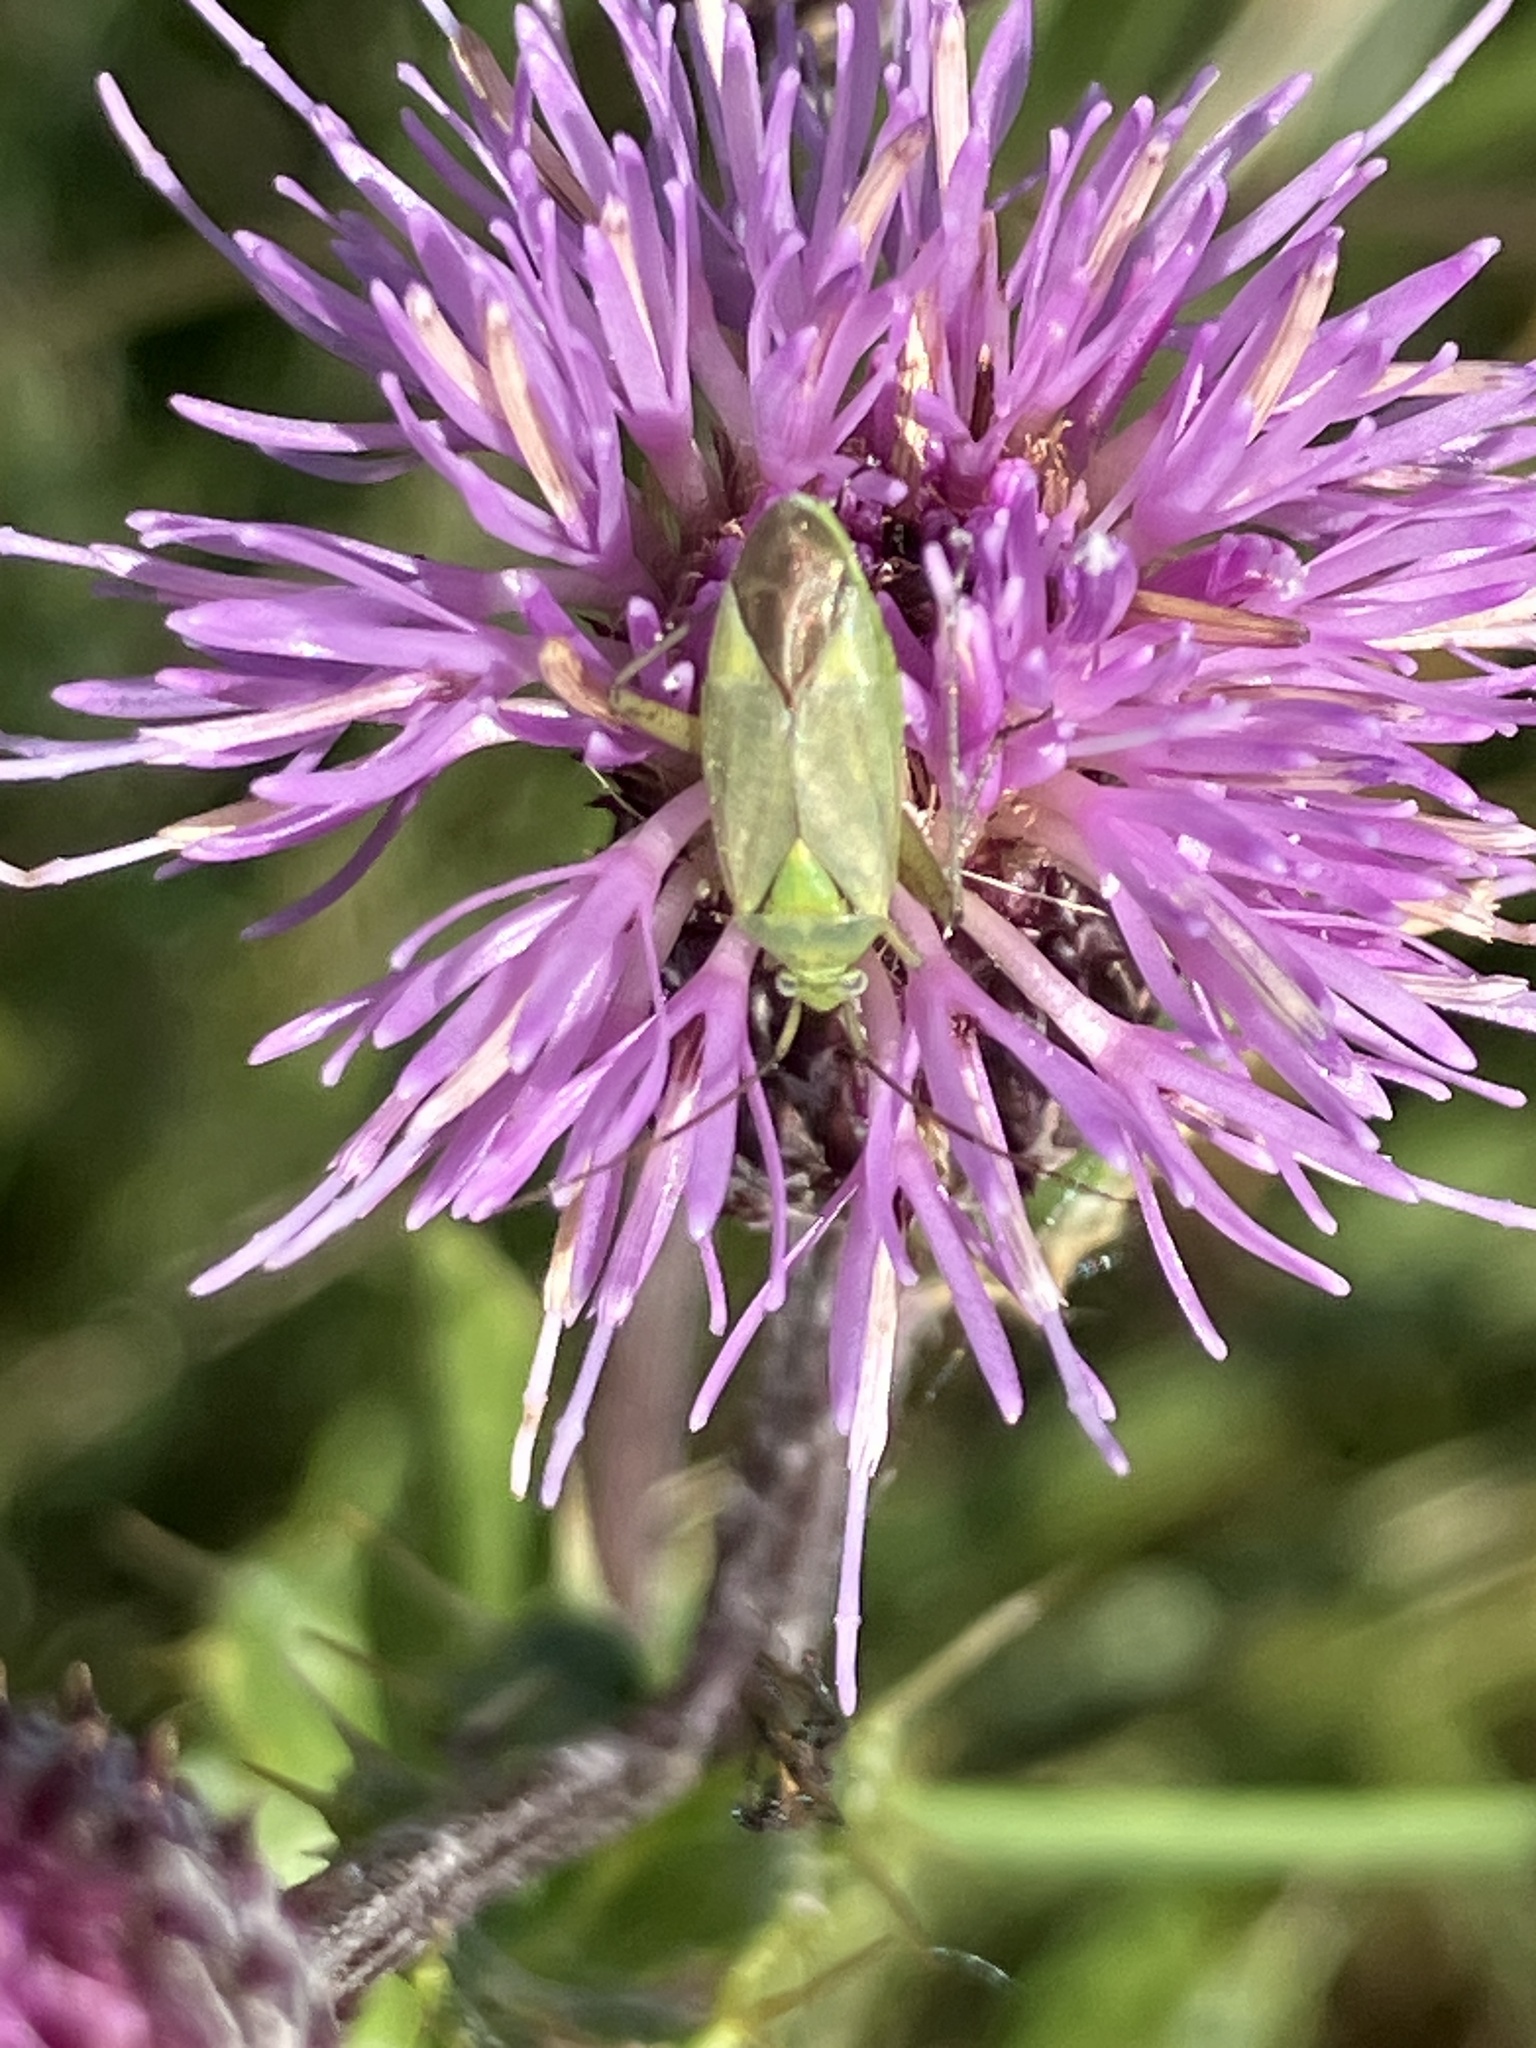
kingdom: Animalia
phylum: Arthropoda
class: Insecta
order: Hemiptera
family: Miridae
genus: Closterotomus
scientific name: Closterotomus norvegicus
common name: Plant bug
